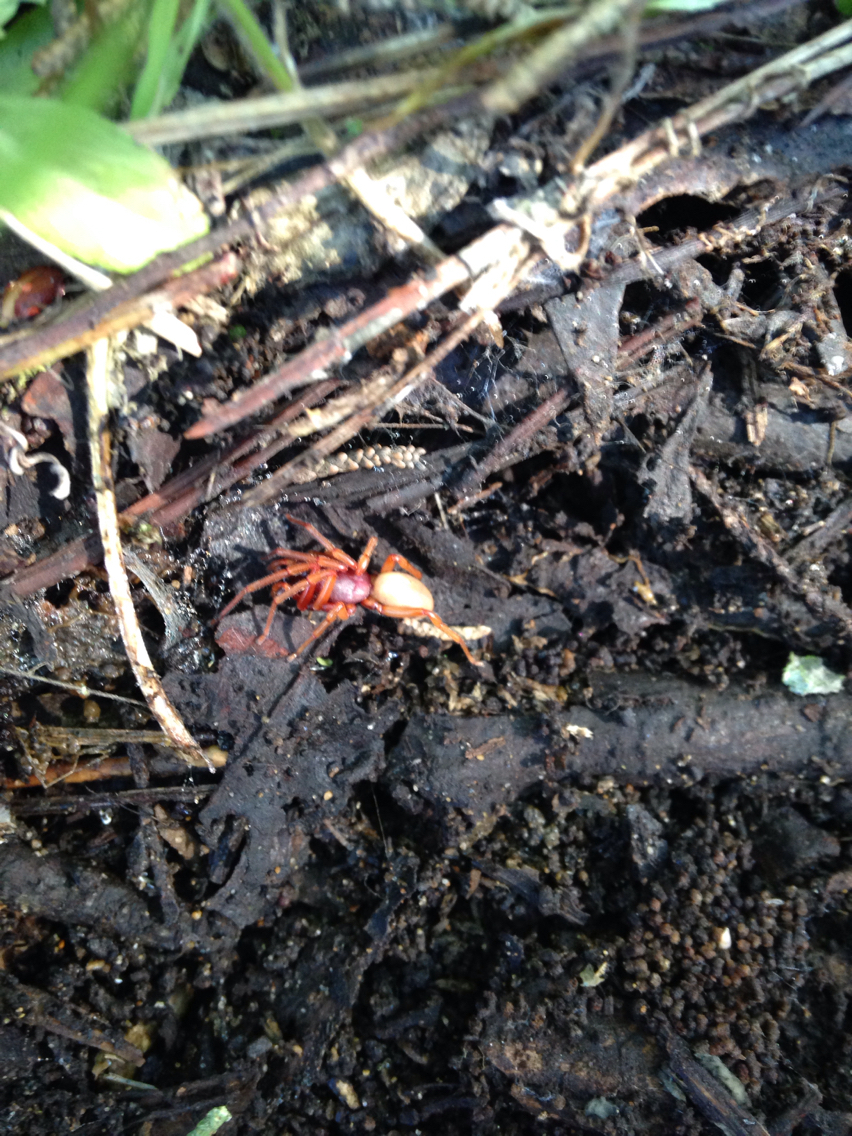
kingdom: Animalia
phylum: Arthropoda
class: Arachnida
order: Araneae
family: Dysderidae
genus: Dysdera
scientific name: Dysdera crocata
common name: Woodlouse spider
